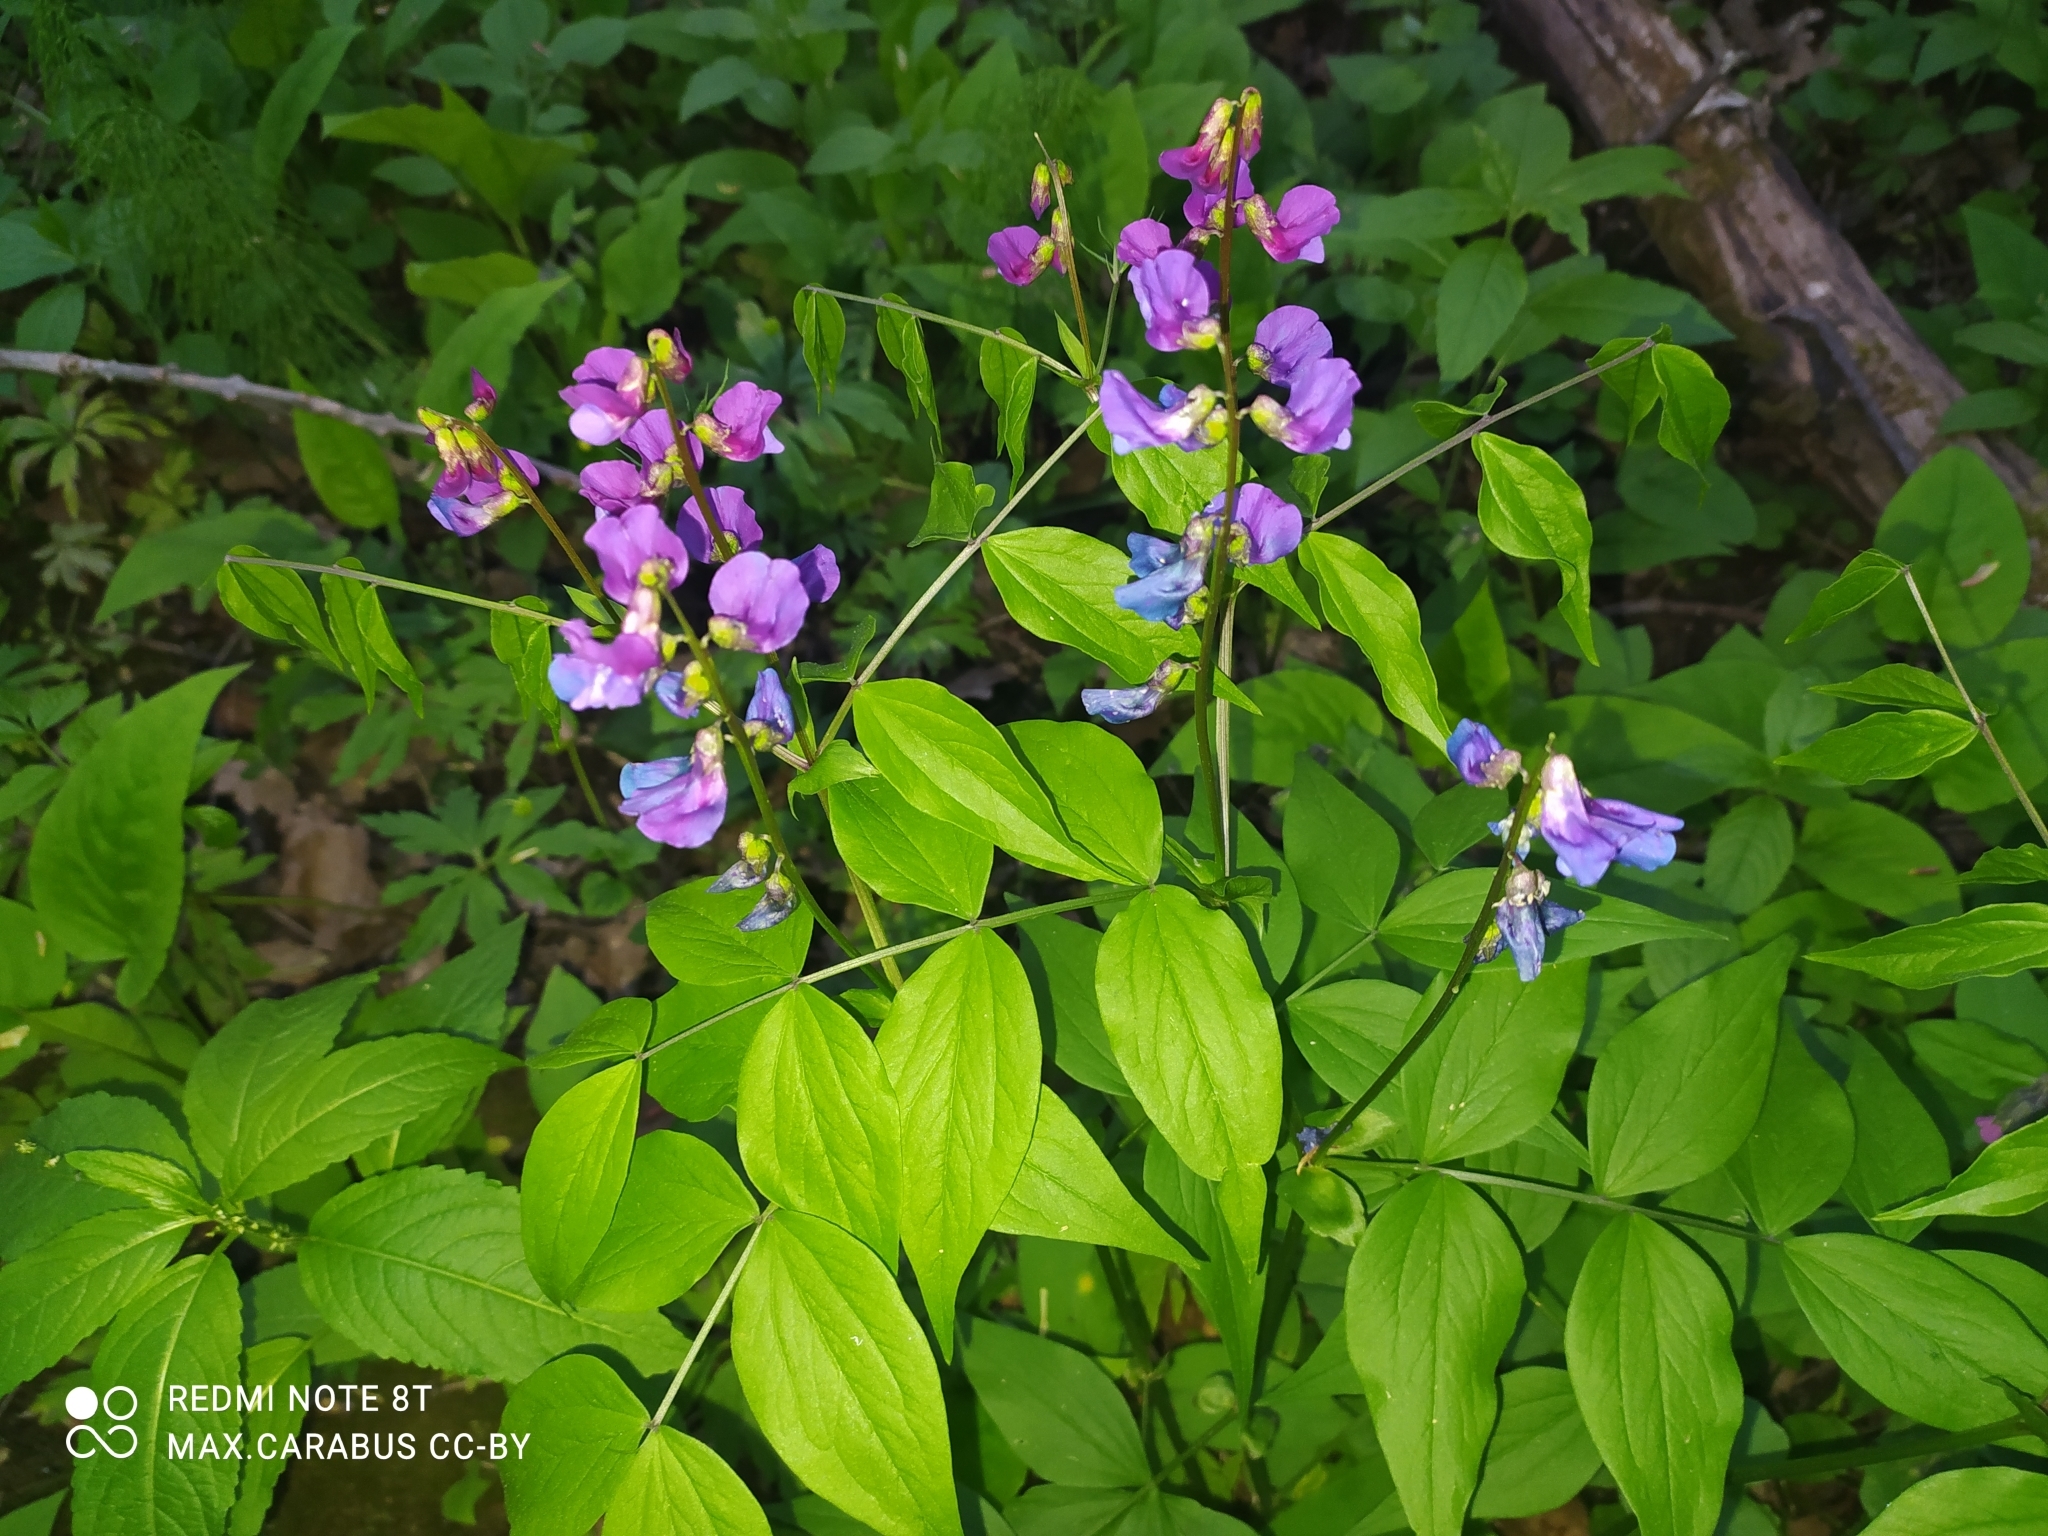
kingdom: Plantae
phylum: Tracheophyta
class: Magnoliopsida
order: Fabales
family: Fabaceae
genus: Lathyrus
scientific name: Lathyrus vernus
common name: Spring pea
